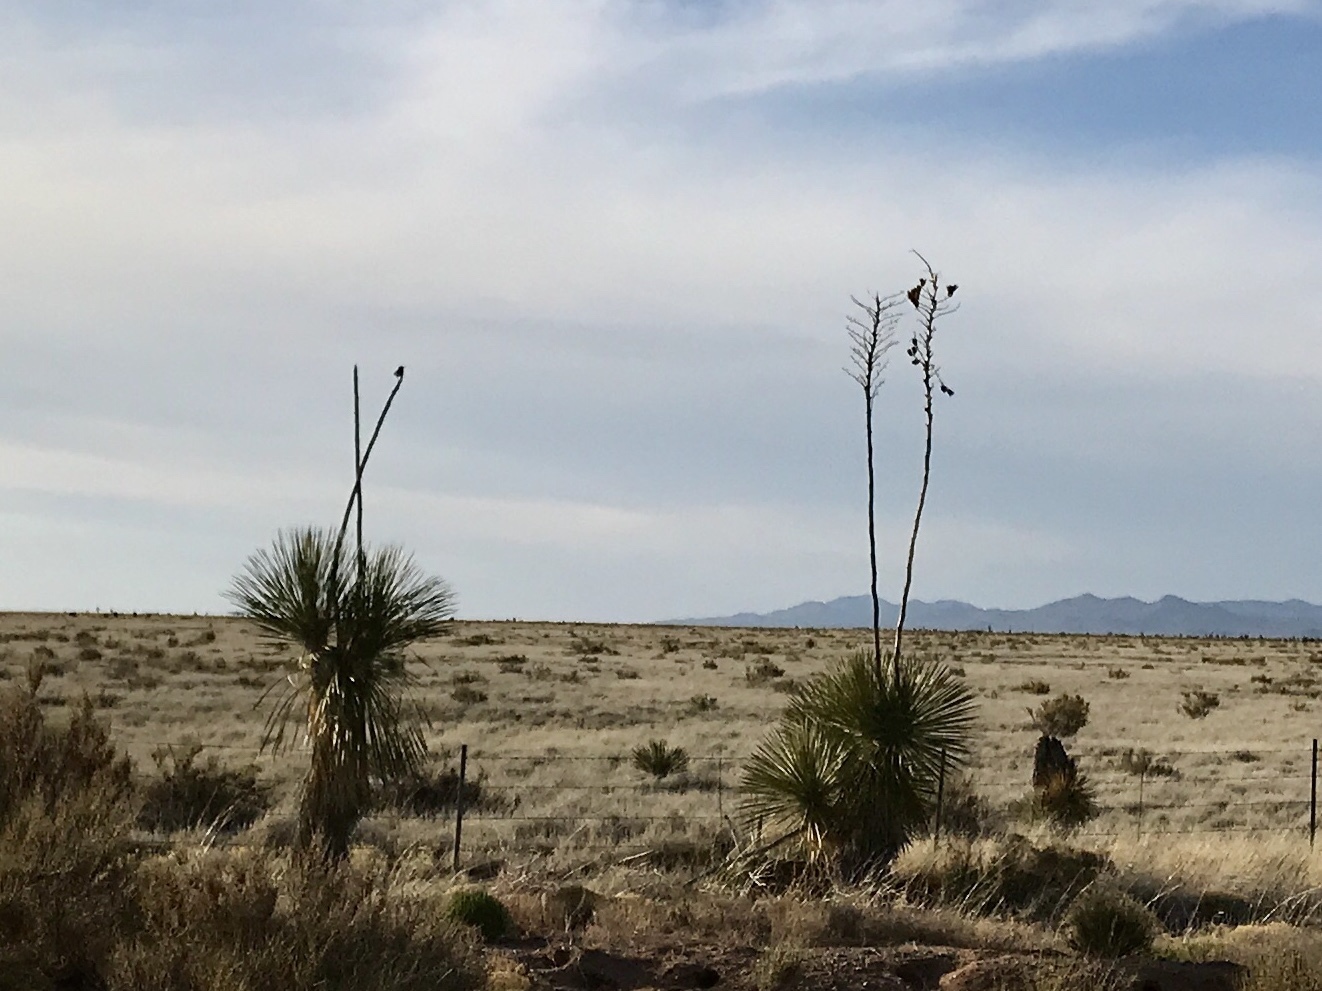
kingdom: Plantae
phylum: Tracheophyta
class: Liliopsida
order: Asparagales
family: Asparagaceae
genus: Yucca
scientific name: Yucca elata
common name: Palmella
